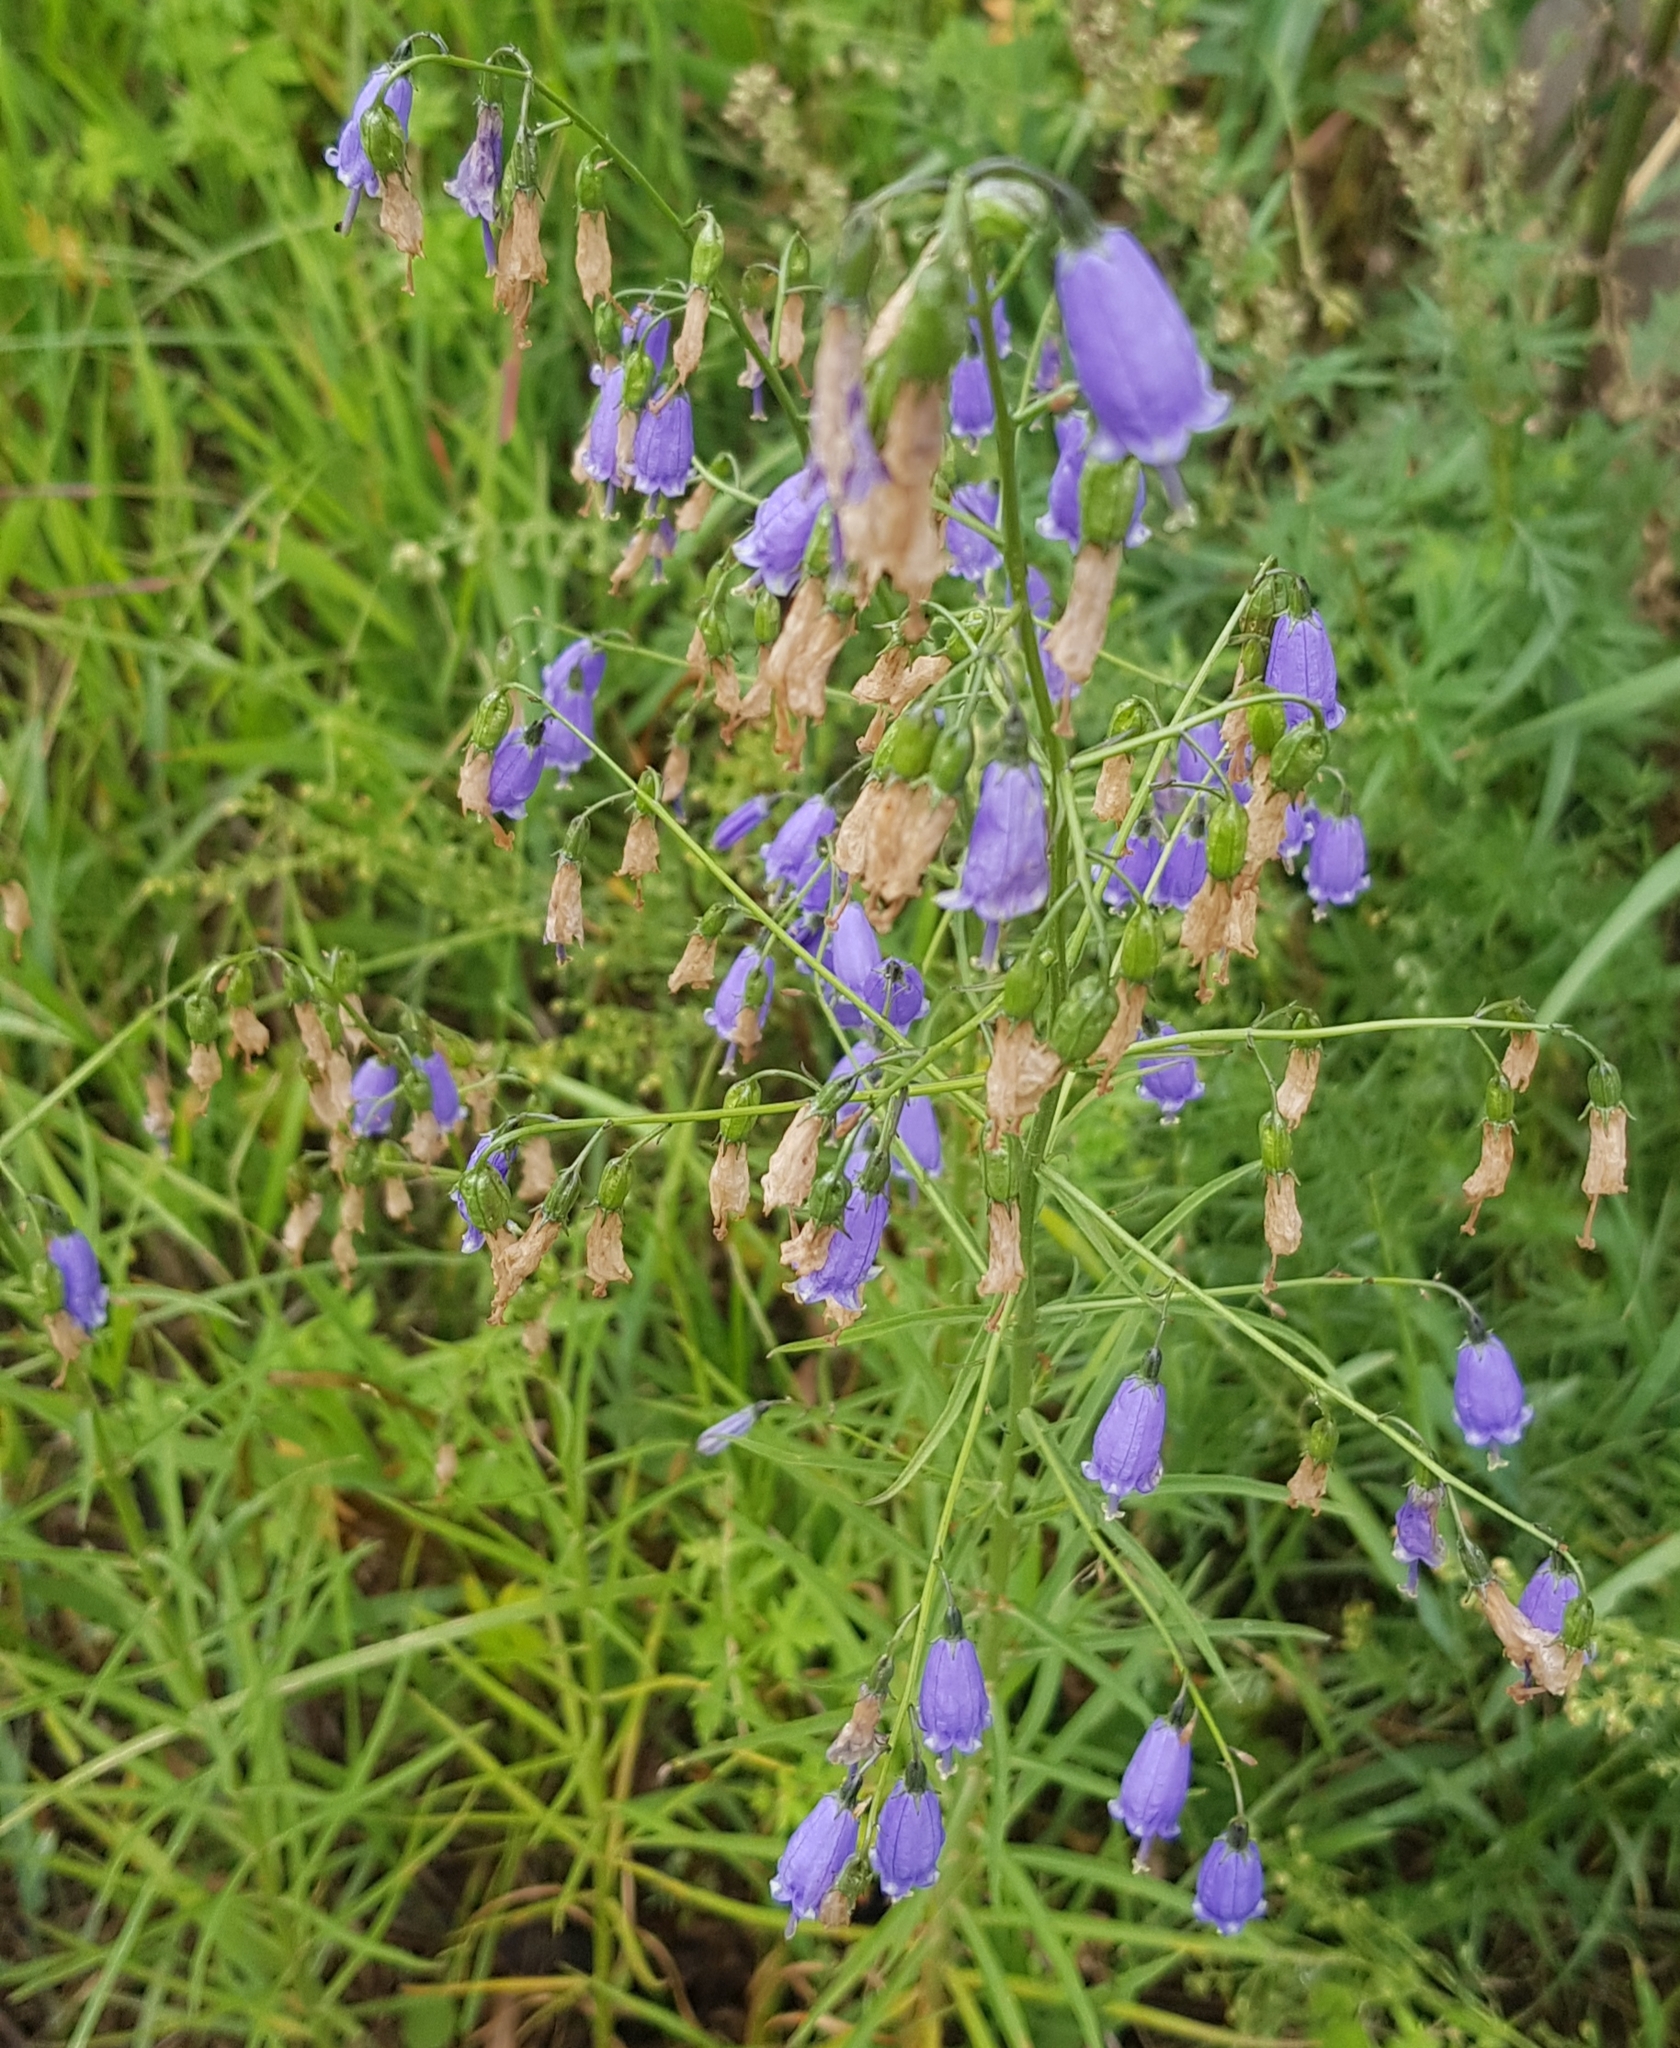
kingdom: Plantae
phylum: Tracheophyta
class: Magnoliopsida
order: Asterales
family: Campanulaceae
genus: Adenophora
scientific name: Adenophora stenanthina
